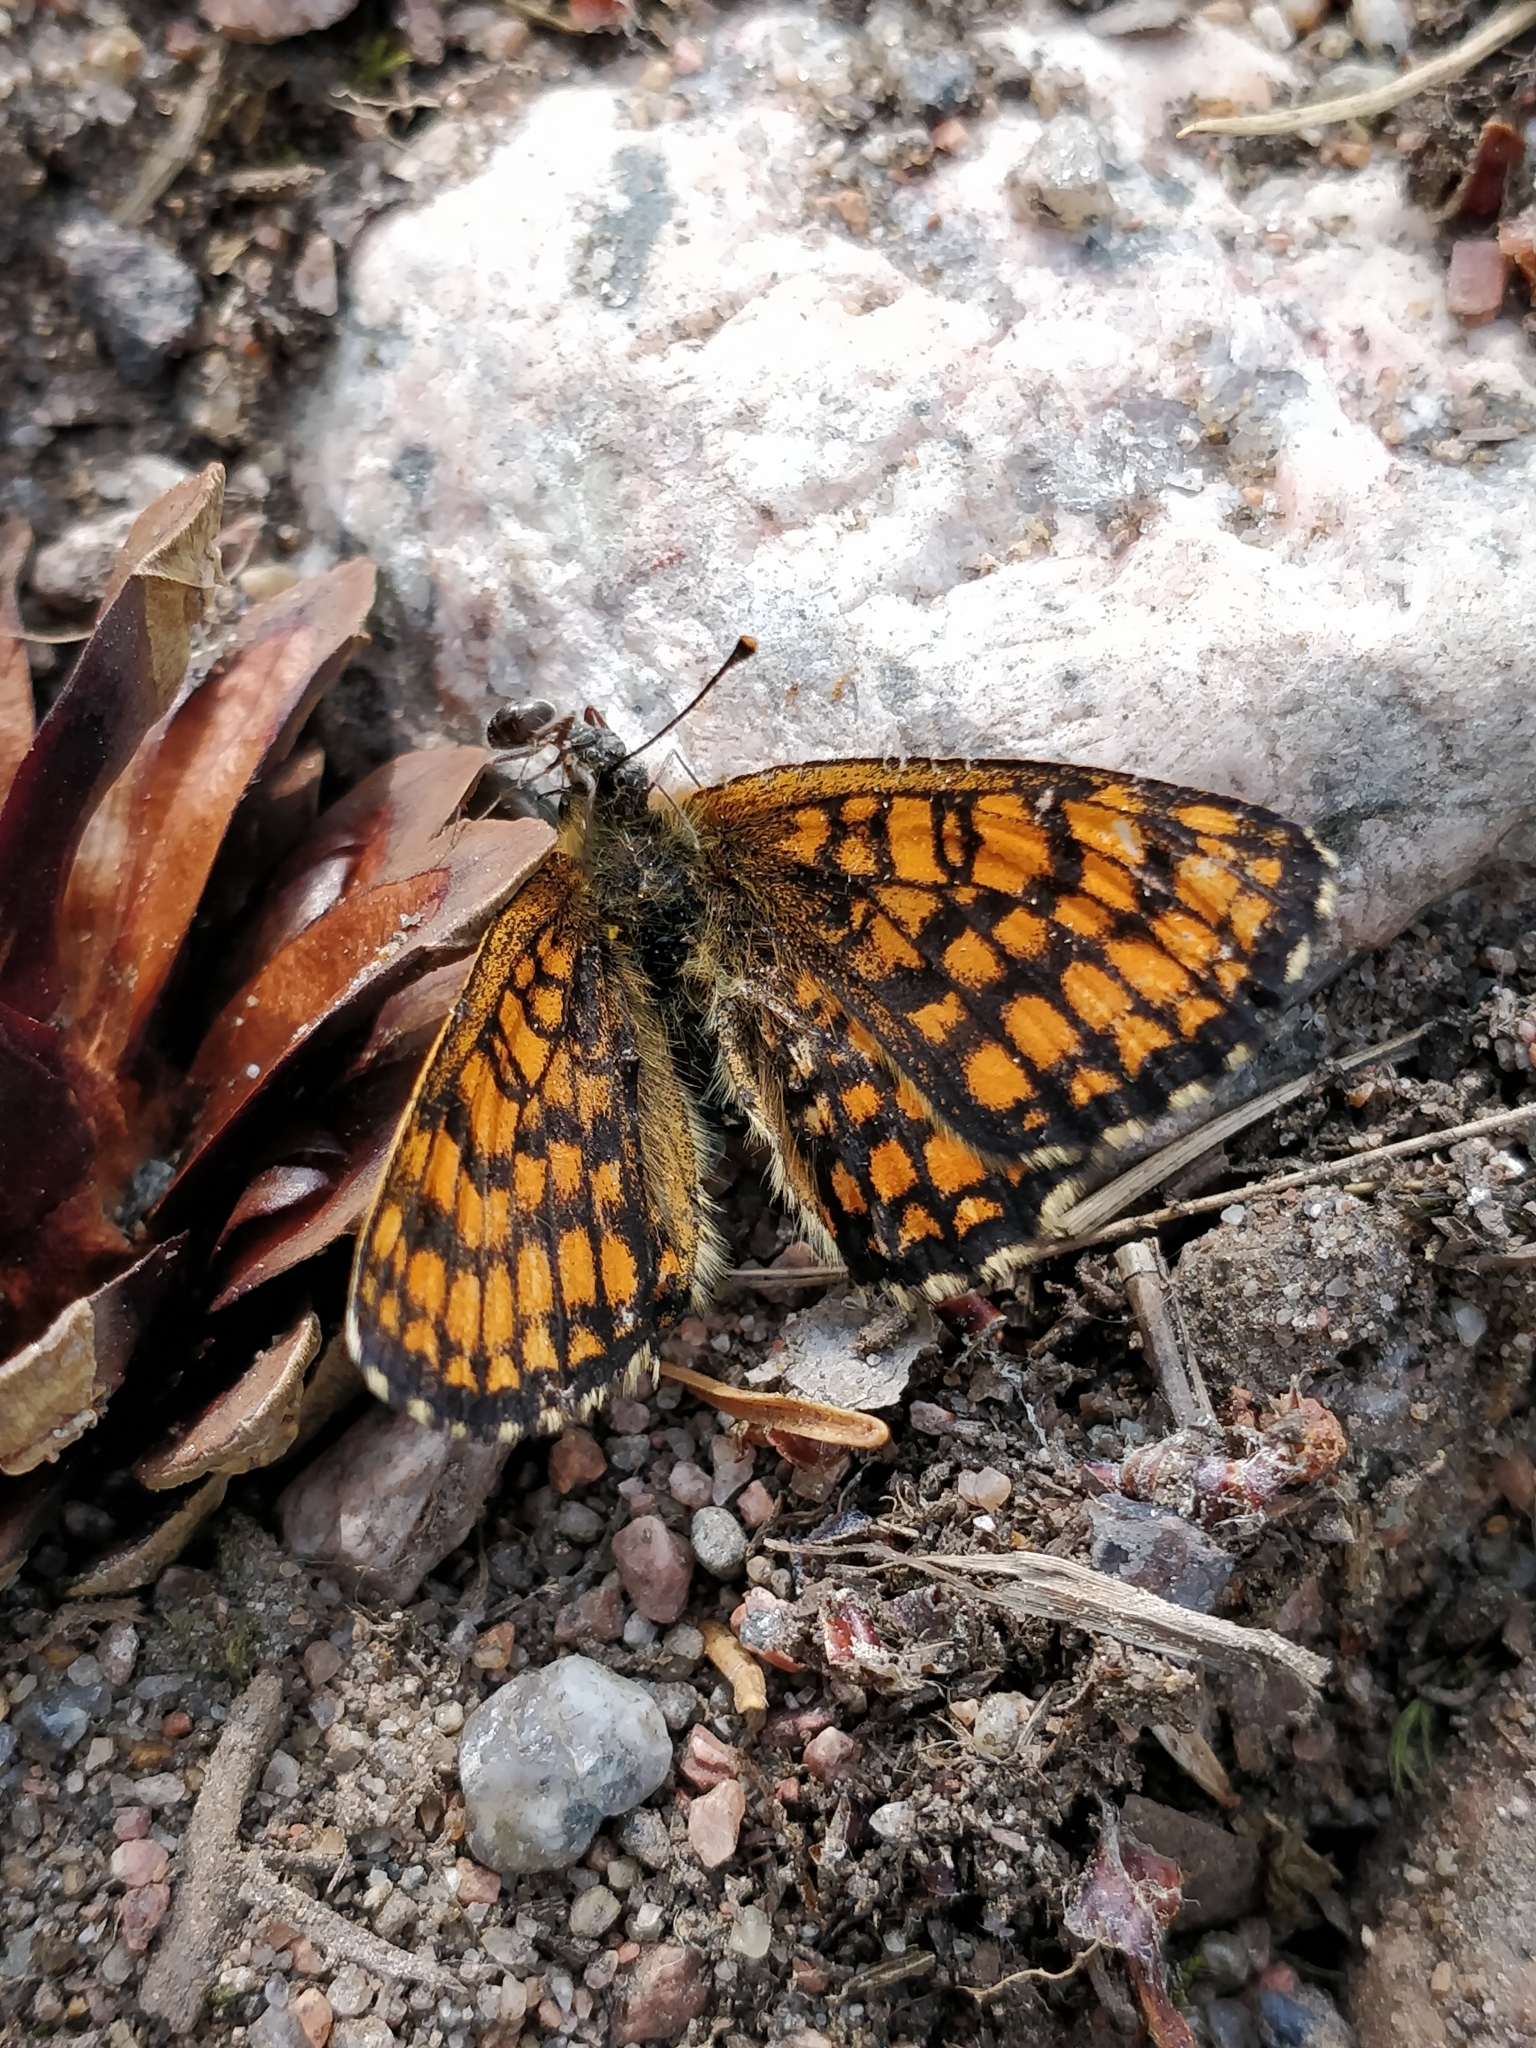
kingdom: Animalia
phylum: Arthropoda
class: Insecta
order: Lepidoptera
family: Nymphalidae
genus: Melitaea
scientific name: Melitaea athalia
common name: Heath fritillary
